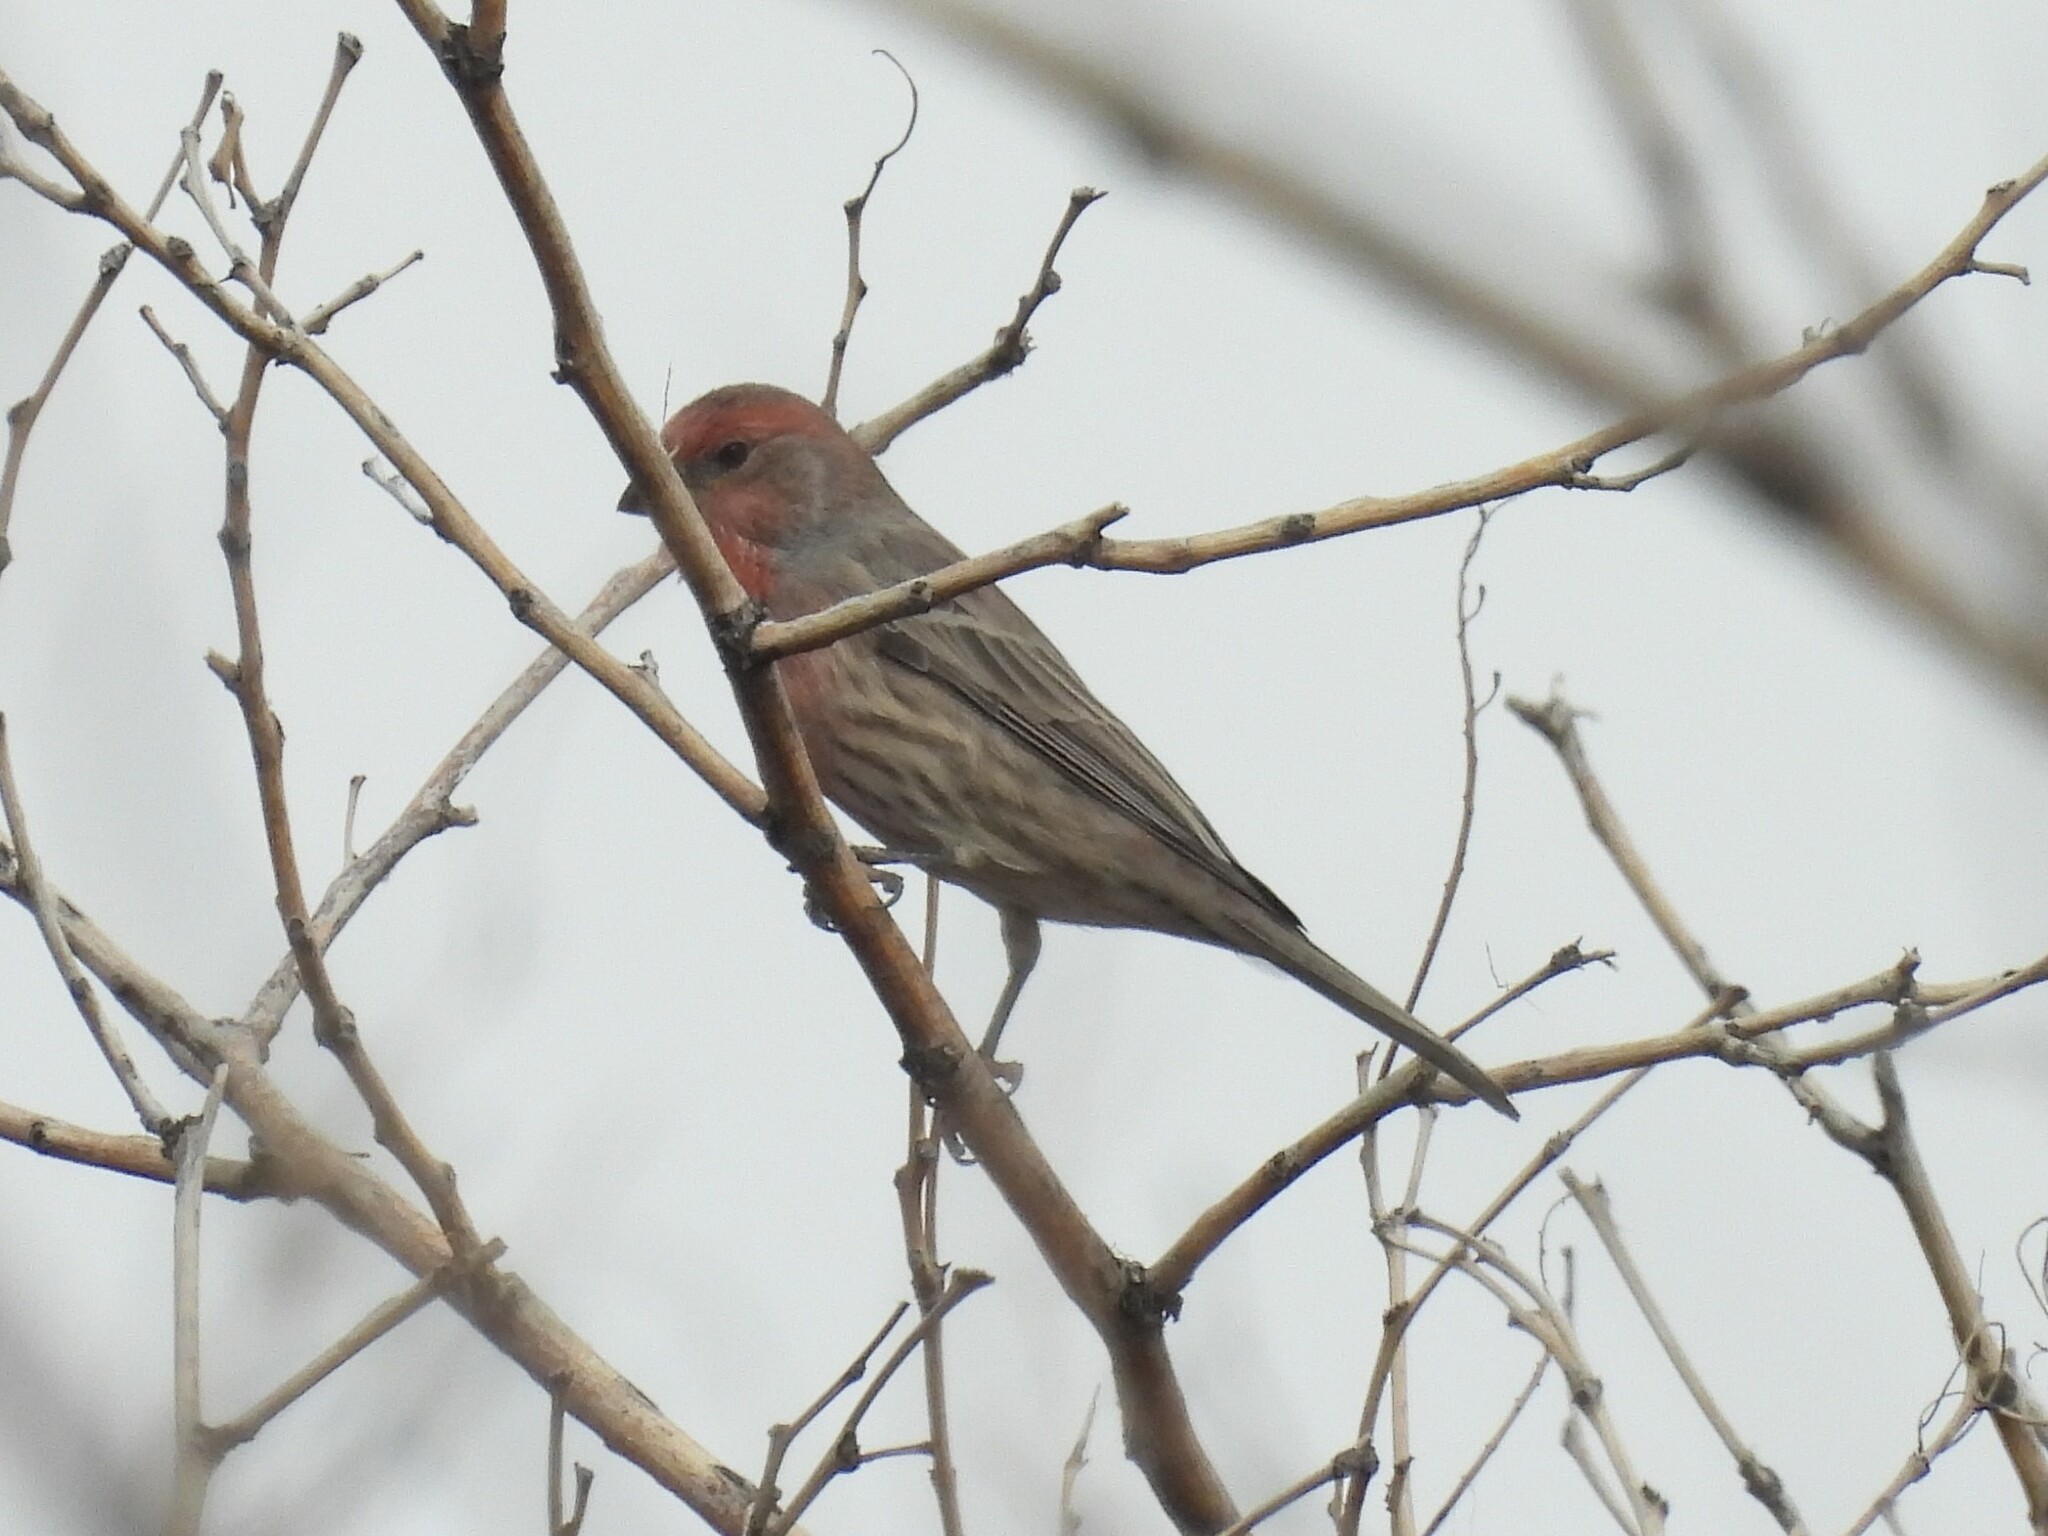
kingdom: Animalia
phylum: Chordata
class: Aves
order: Passeriformes
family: Fringillidae
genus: Haemorhous
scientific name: Haemorhous mexicanus
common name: House finch
